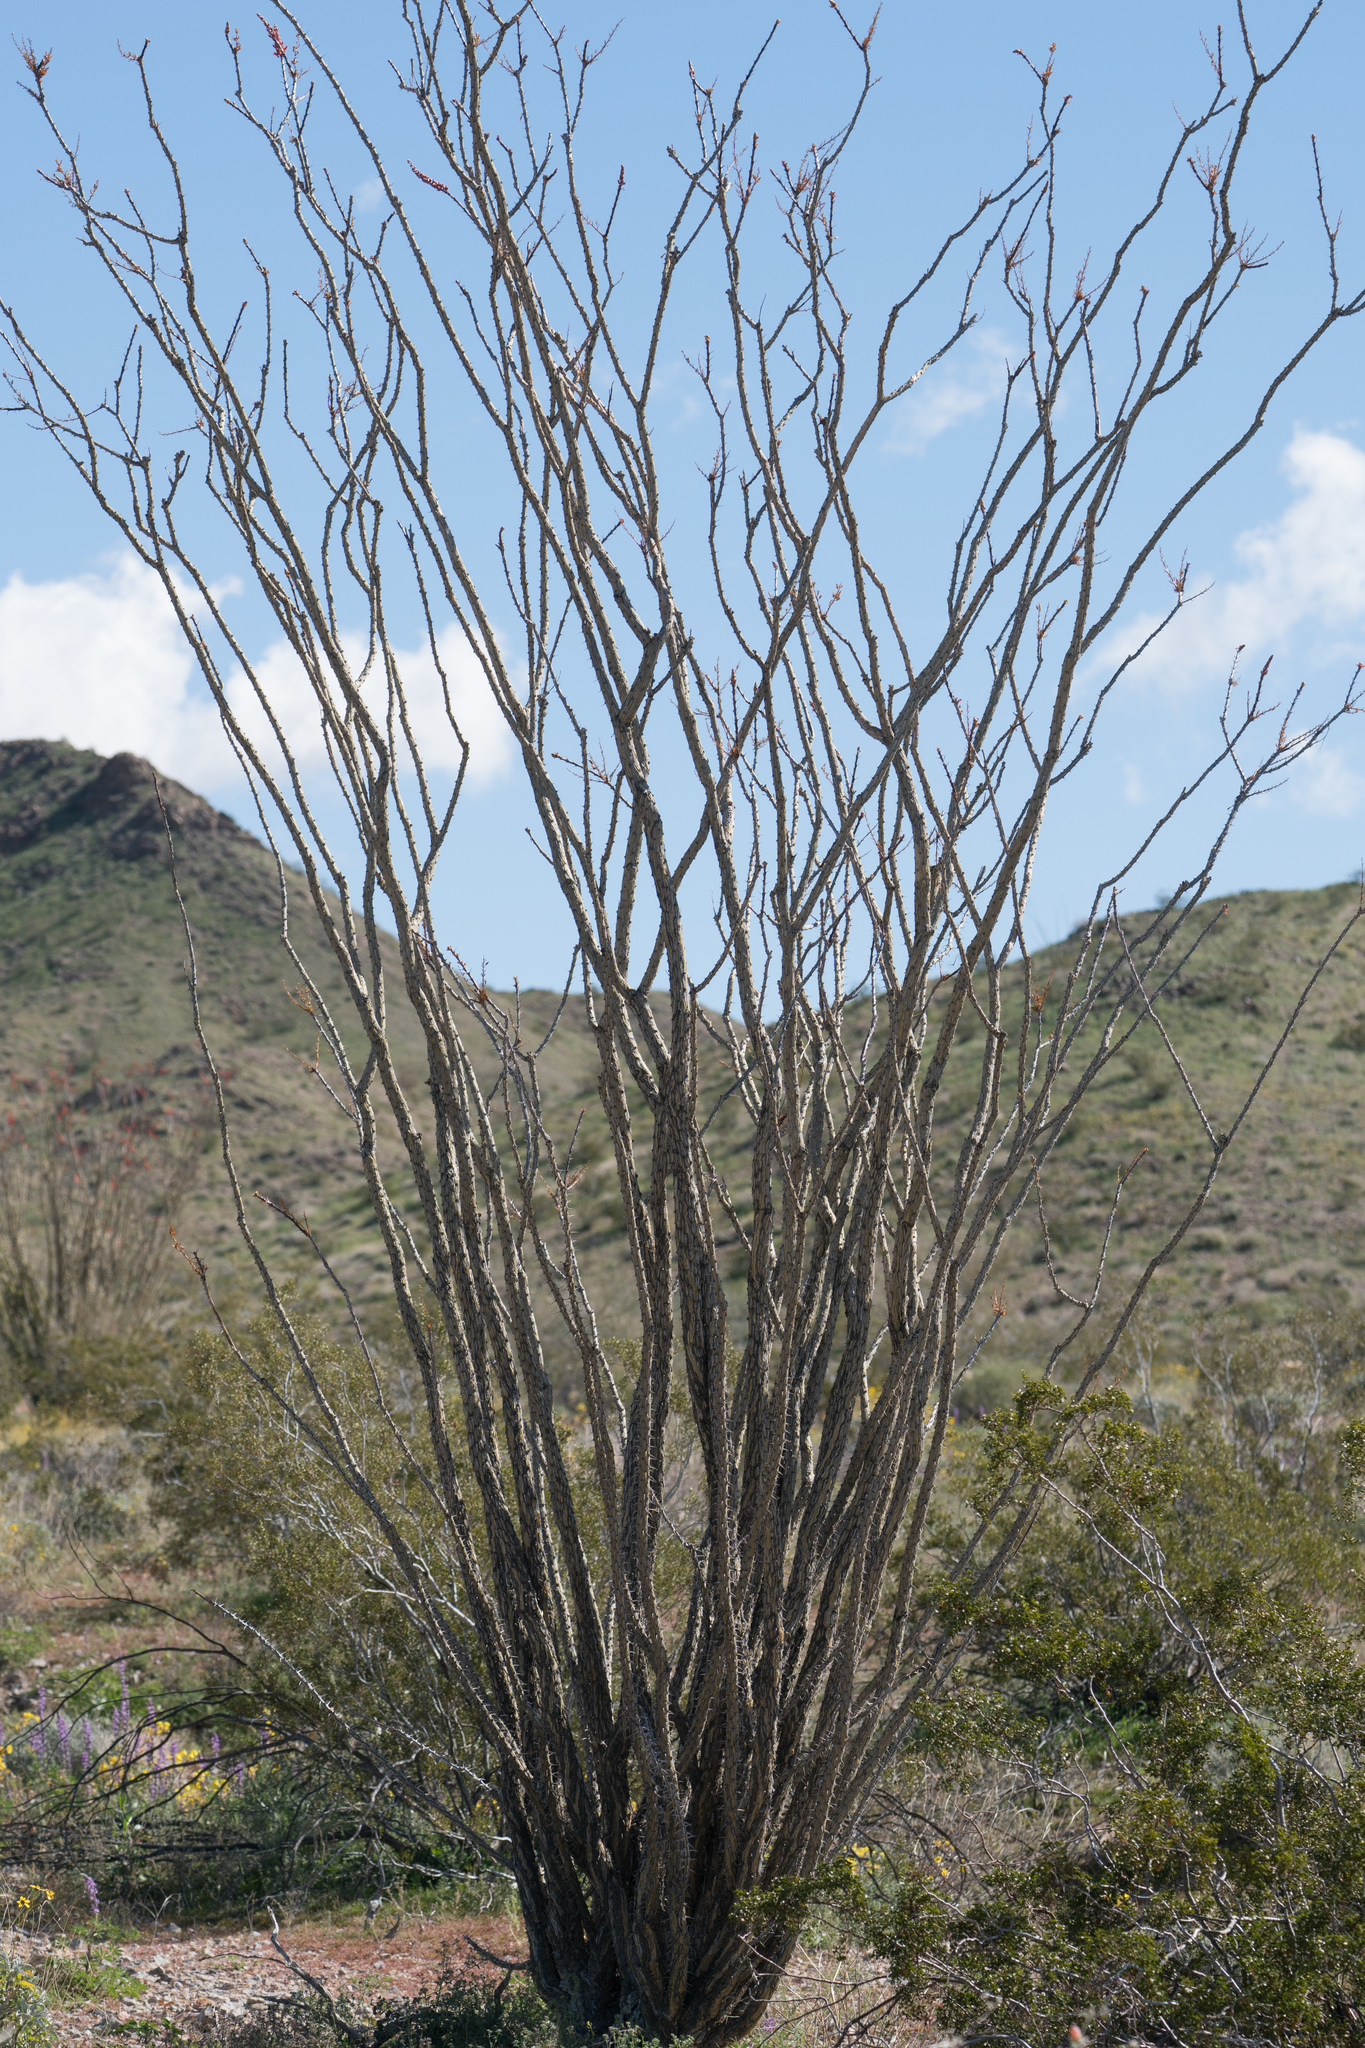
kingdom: Plantae
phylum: Tracheophyta
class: Magnoliopsida
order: Ericales
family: Fouquieriaceae
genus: Fouquieria
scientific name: Fouquieria splendens
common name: Vine-cactus
